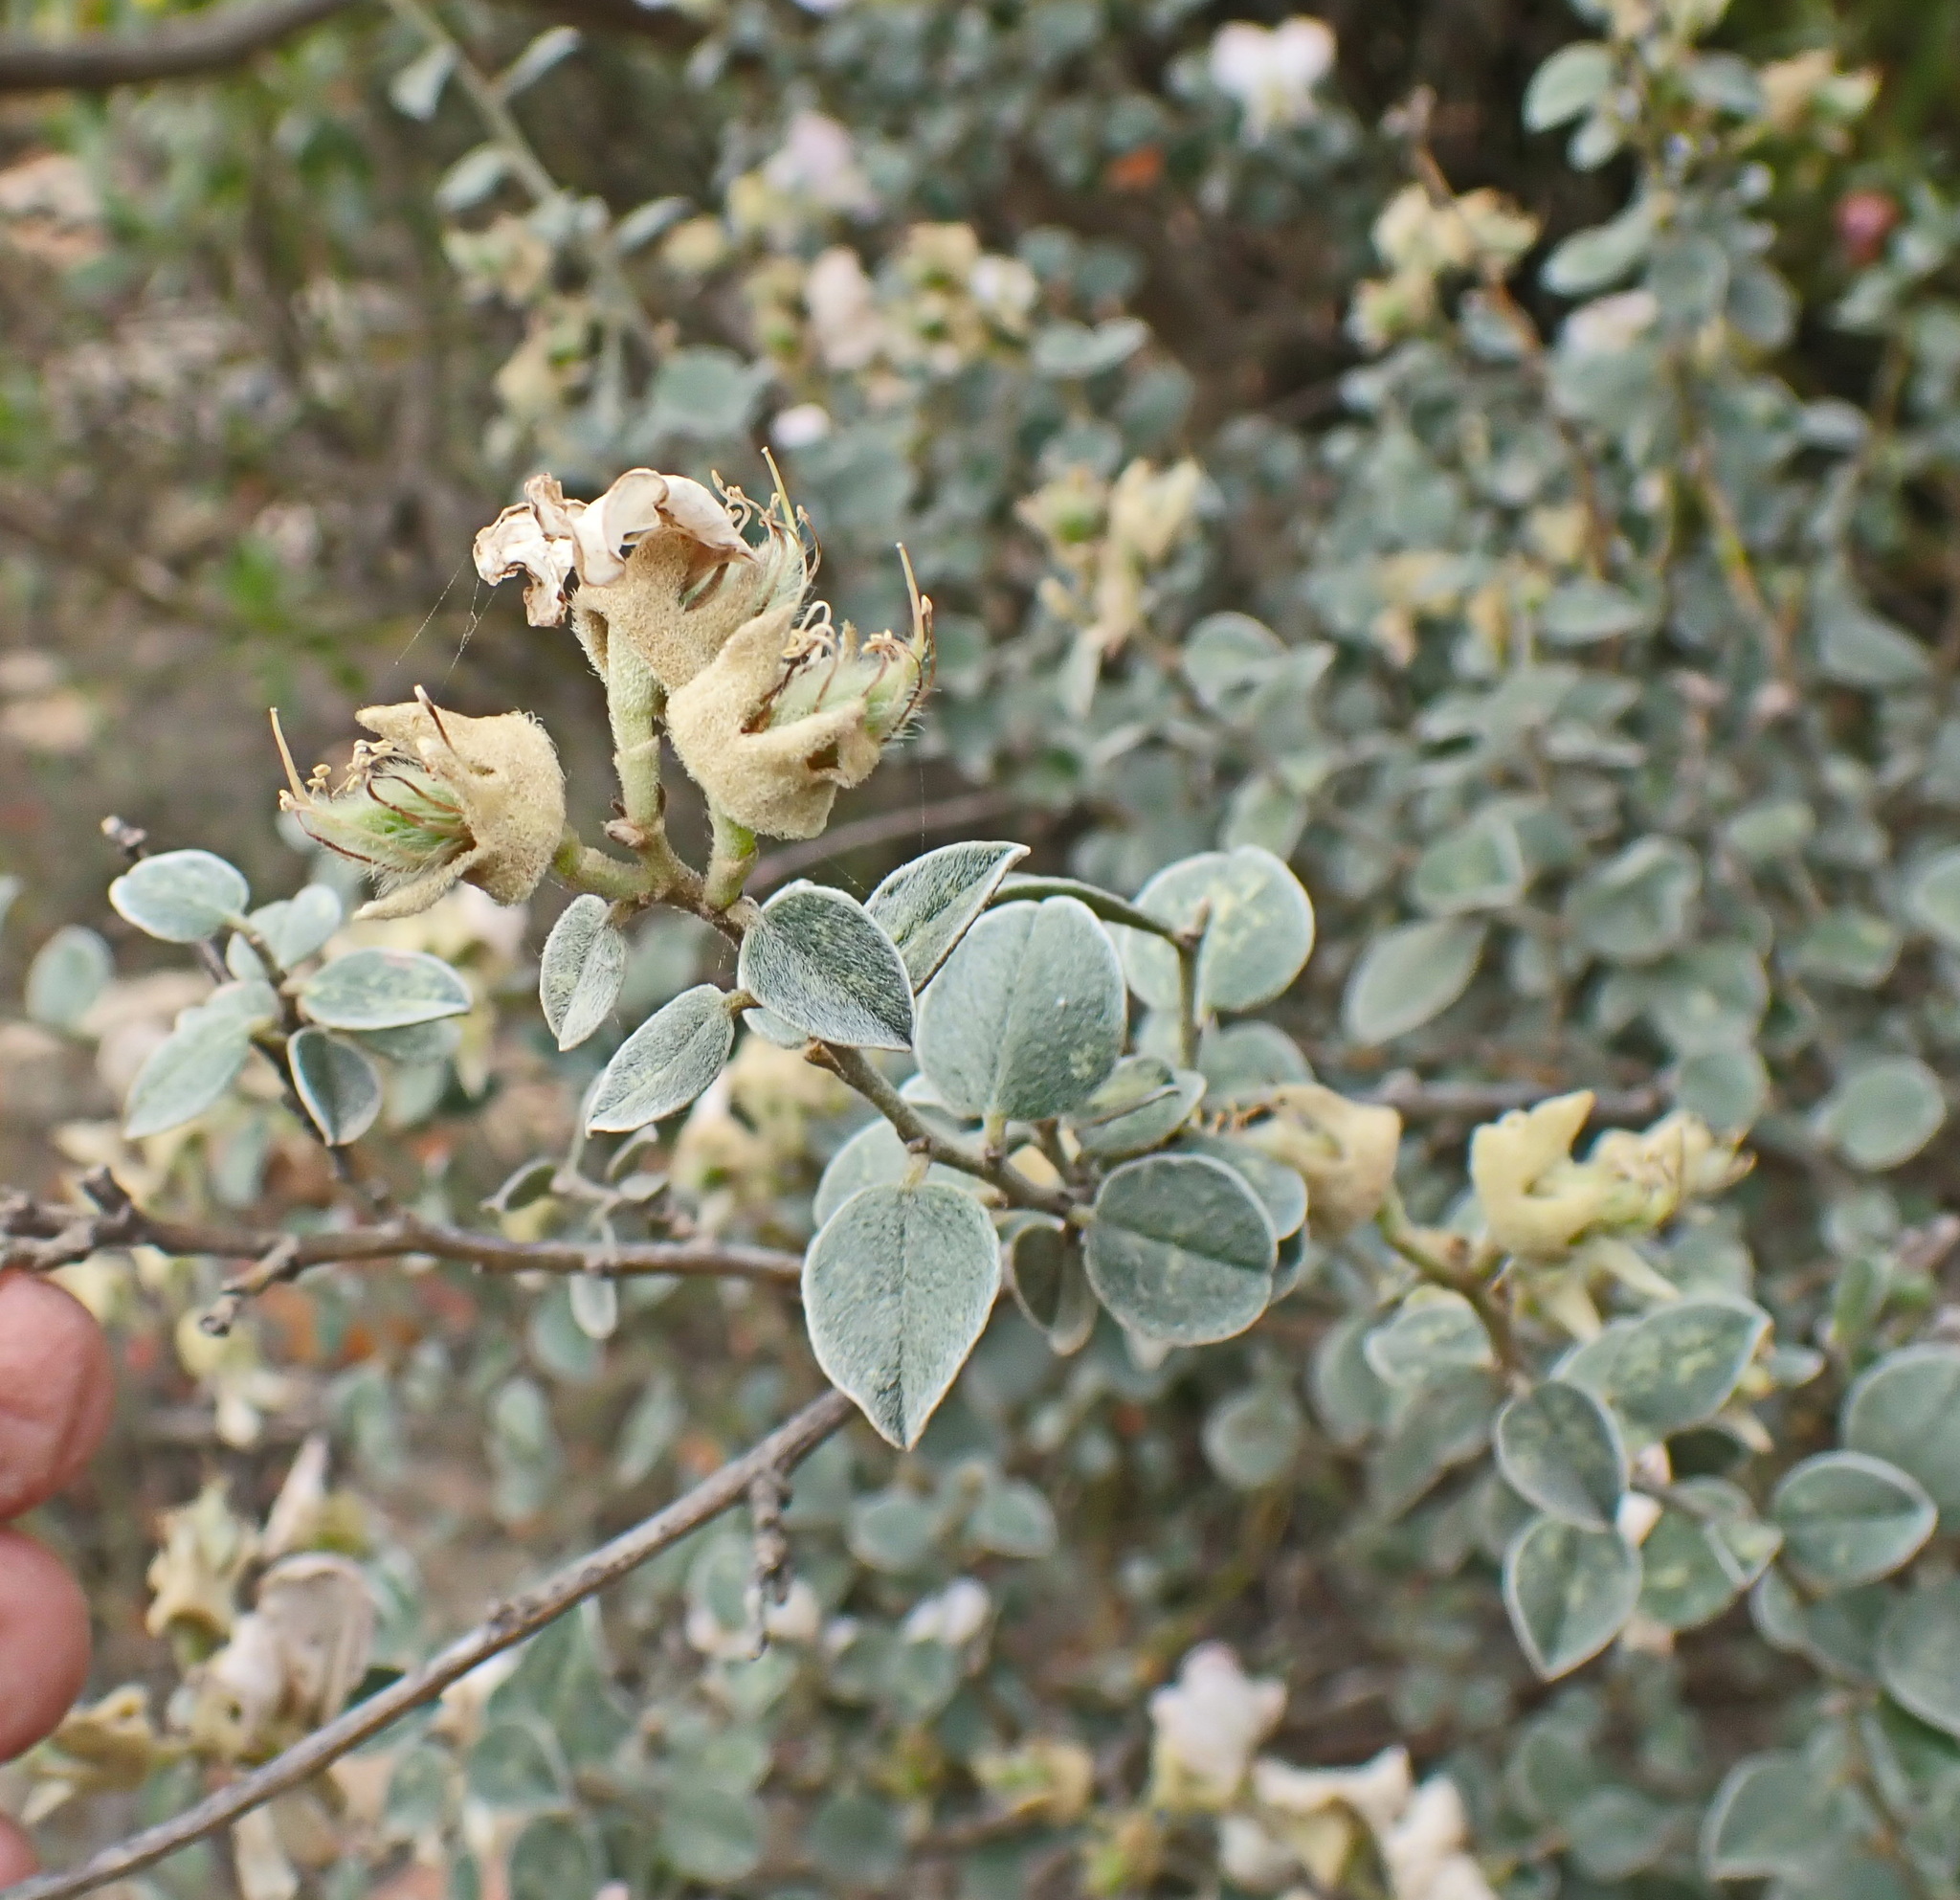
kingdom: Plantae
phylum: Tracheophyta
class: Magnoliopsida
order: Fabales
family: Fabaceae
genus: Podalyria
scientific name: Podalyria hirsuta
